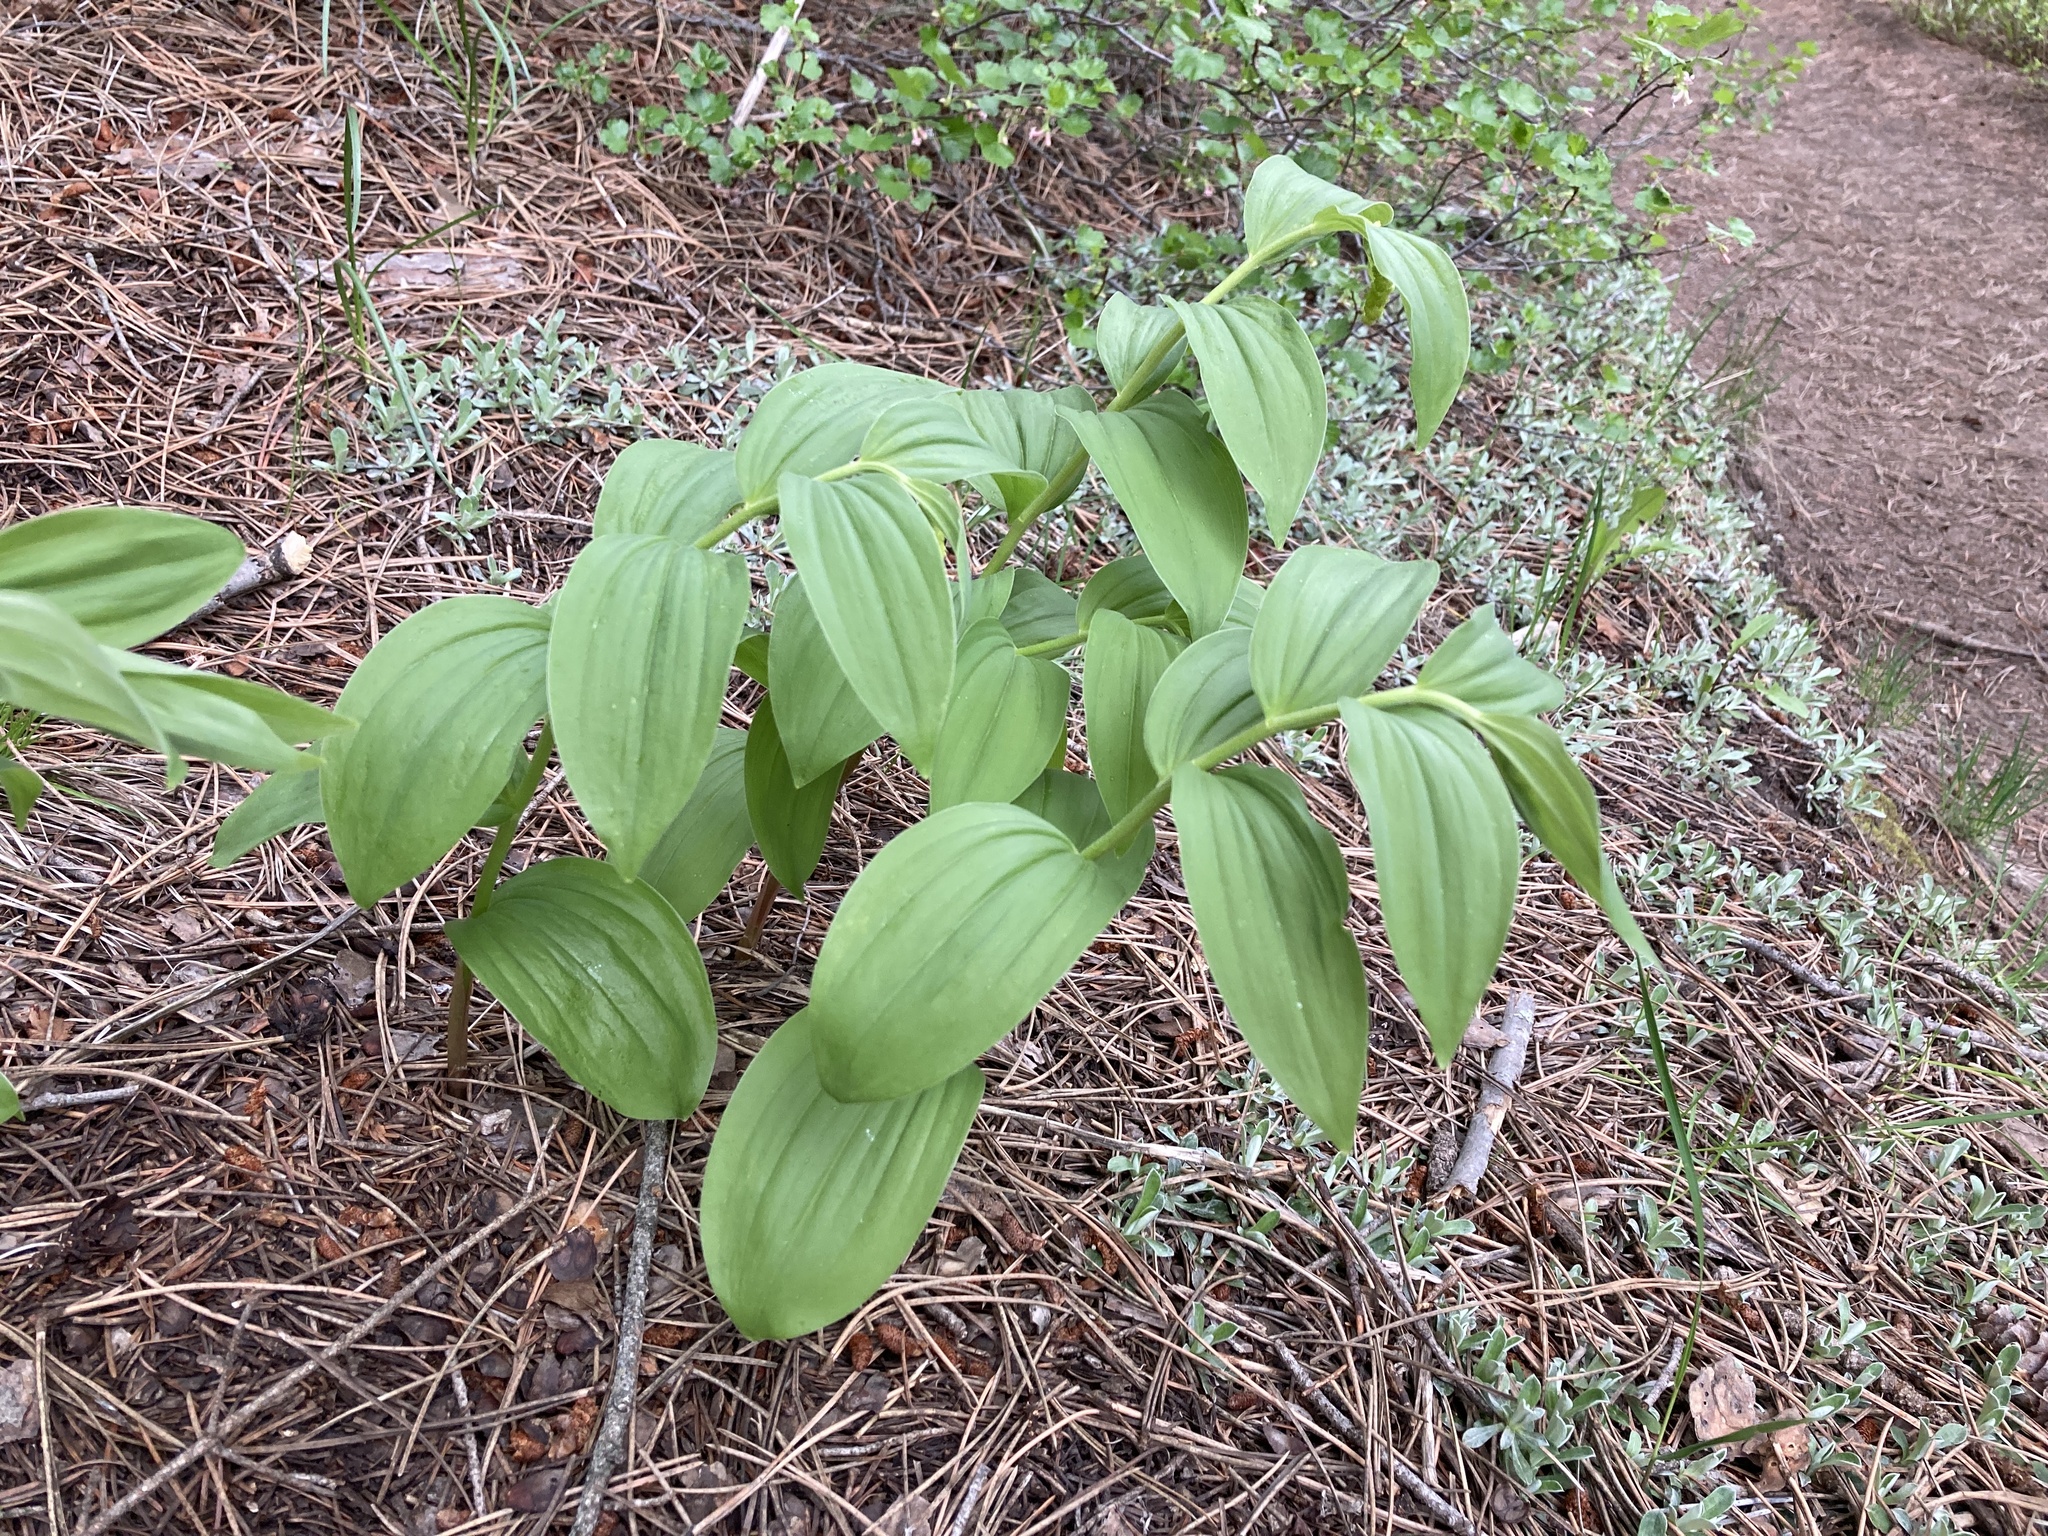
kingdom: Plantae
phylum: Tracheophyta
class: Liliopsida
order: Asparagales
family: Asparagaceae
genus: Maianthemum
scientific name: Maianthemum racemosum
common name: False spikenard
